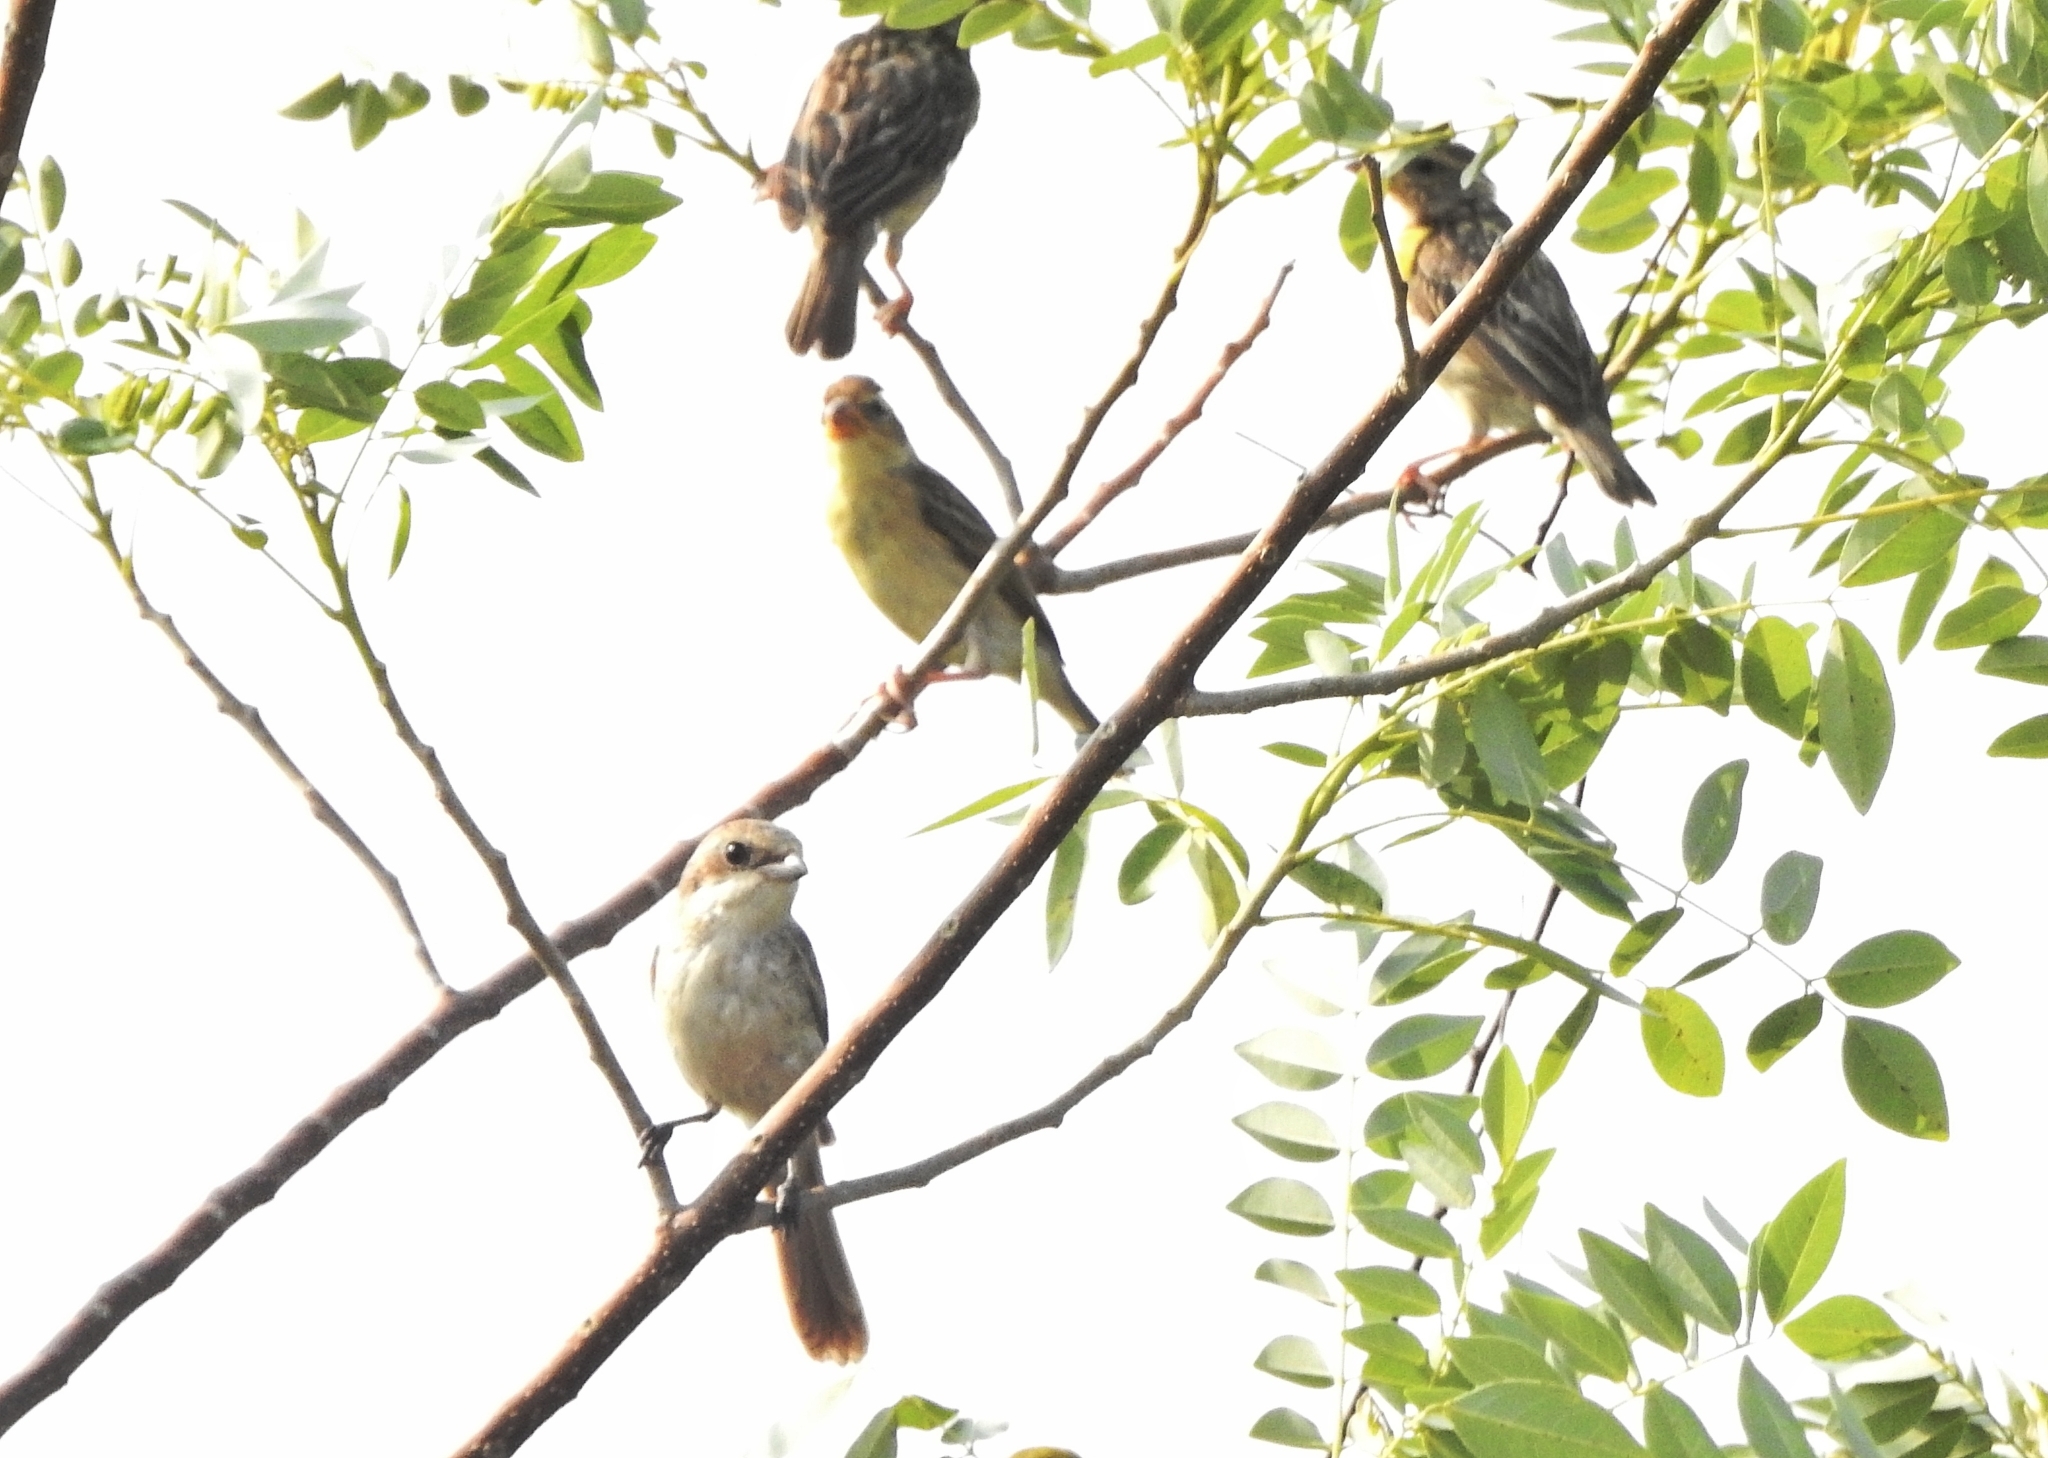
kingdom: Animalia
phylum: Chordata
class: Aves
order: Passeriformes
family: Ploceidae
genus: Ploceus
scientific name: Ploceus philippinus
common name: Baya weaver
